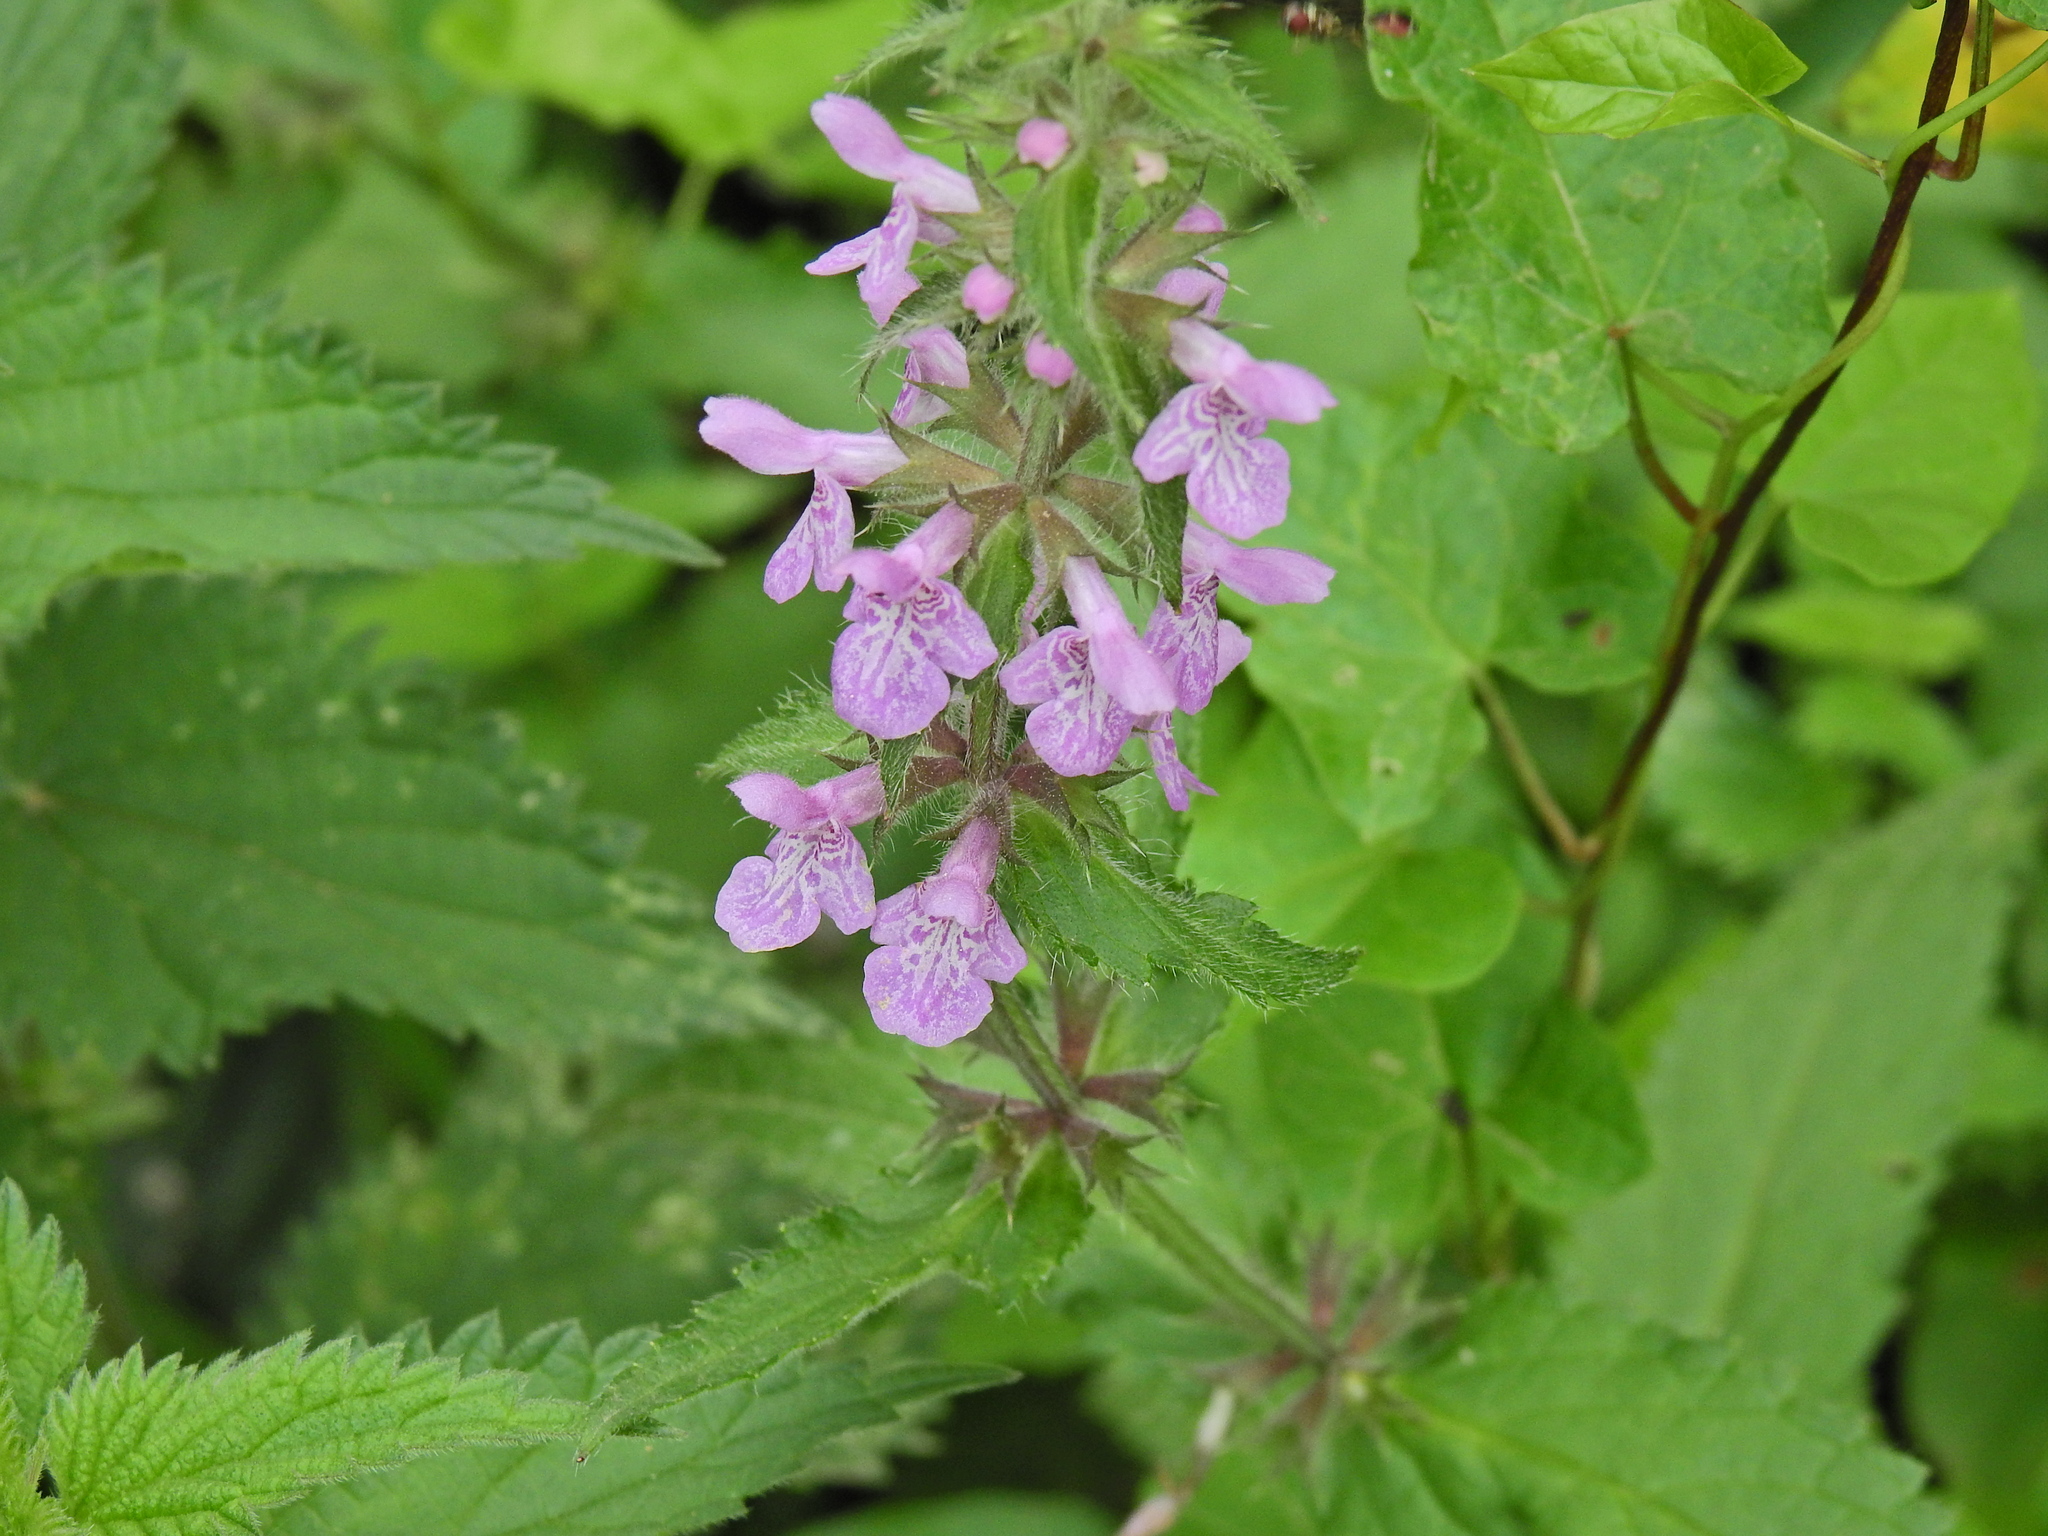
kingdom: Plantae
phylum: Tracheophyta
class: Magnoliopsida
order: Lamiales
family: Lamiaceae
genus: Stachys
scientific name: Stachys palustris
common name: Marsh woundwort
